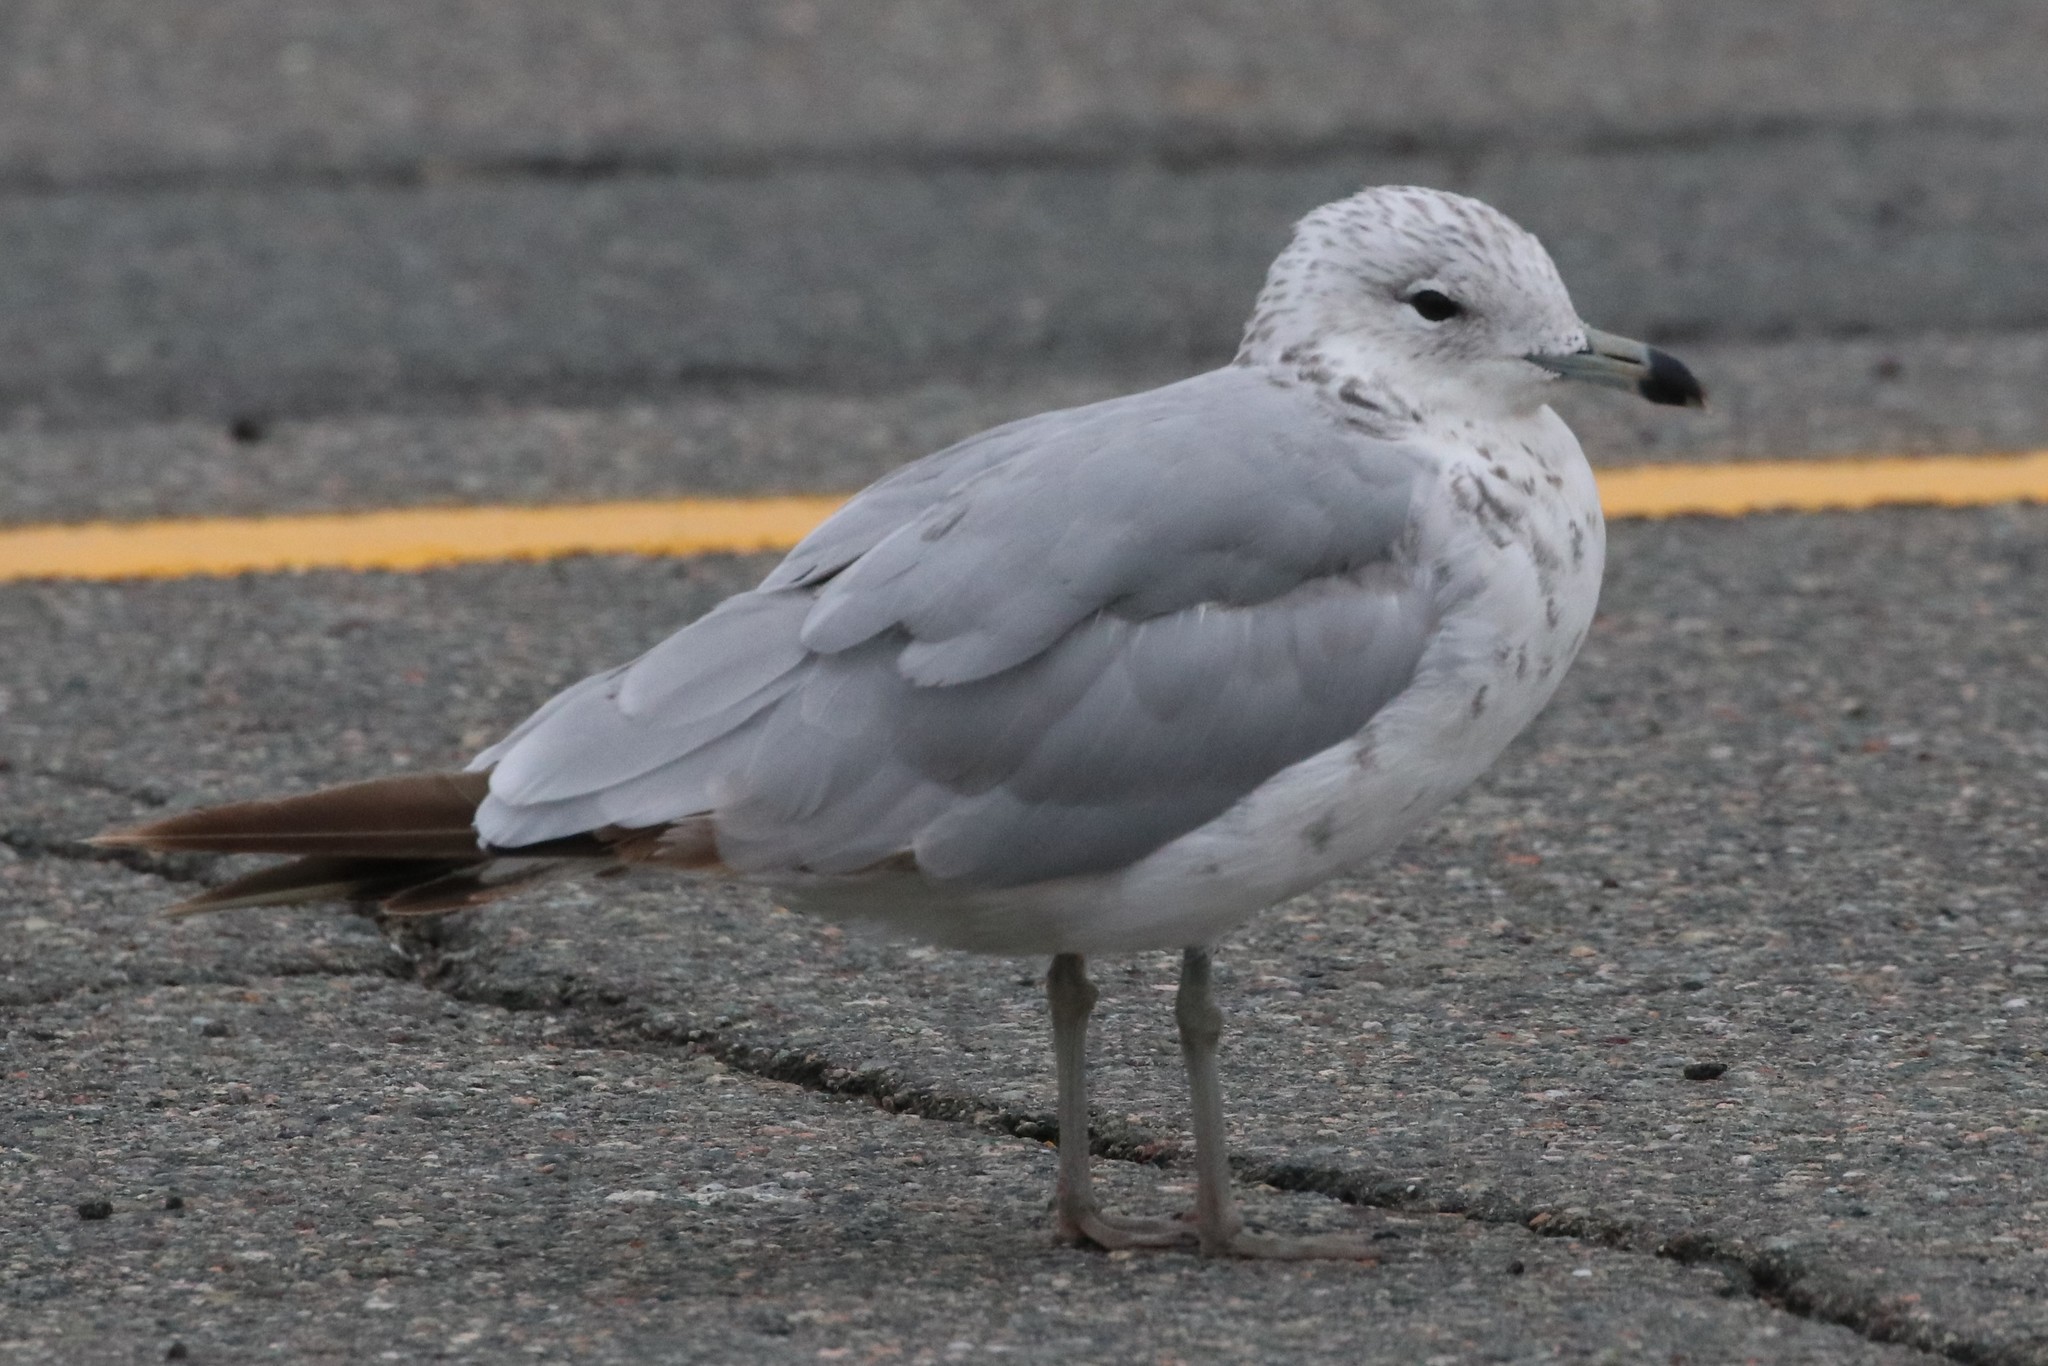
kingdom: Animalia
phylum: Chordata
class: Aves
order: Charadriiformes
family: Laridae
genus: Larus
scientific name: Larus delawarensis
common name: Ring-billed gull
